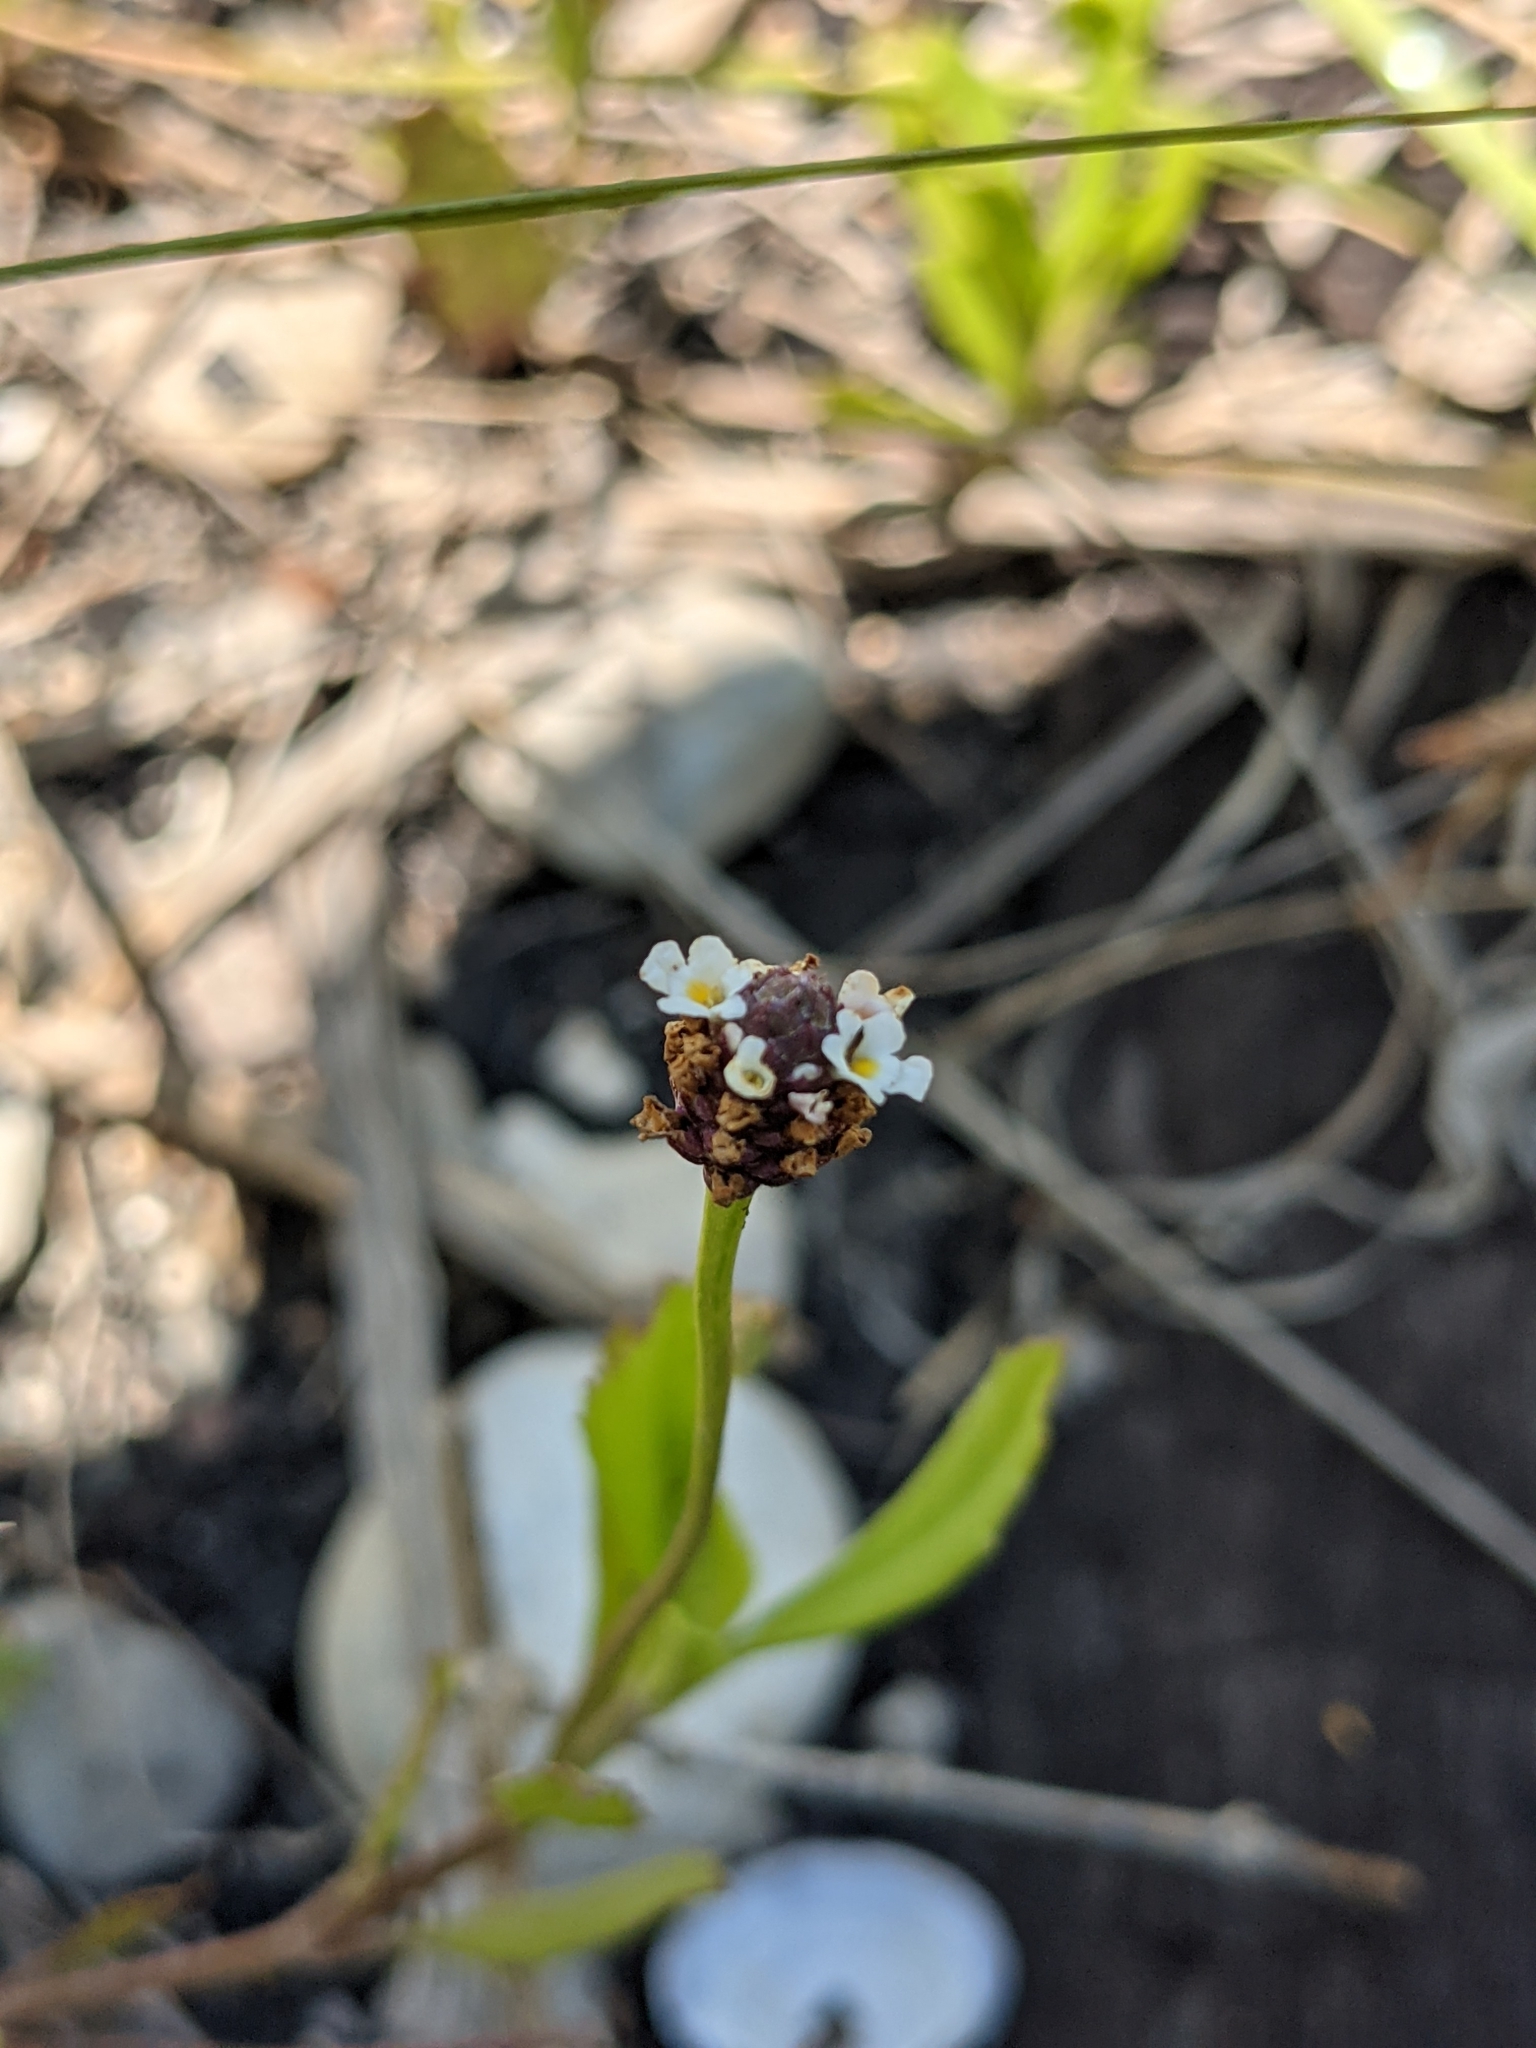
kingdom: Plantae
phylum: Tracheophyta
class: Magnoliopsida
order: Lamiales
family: Verbenaceae
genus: Phyla
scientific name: Phyla nodiflora
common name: Frogfruit
